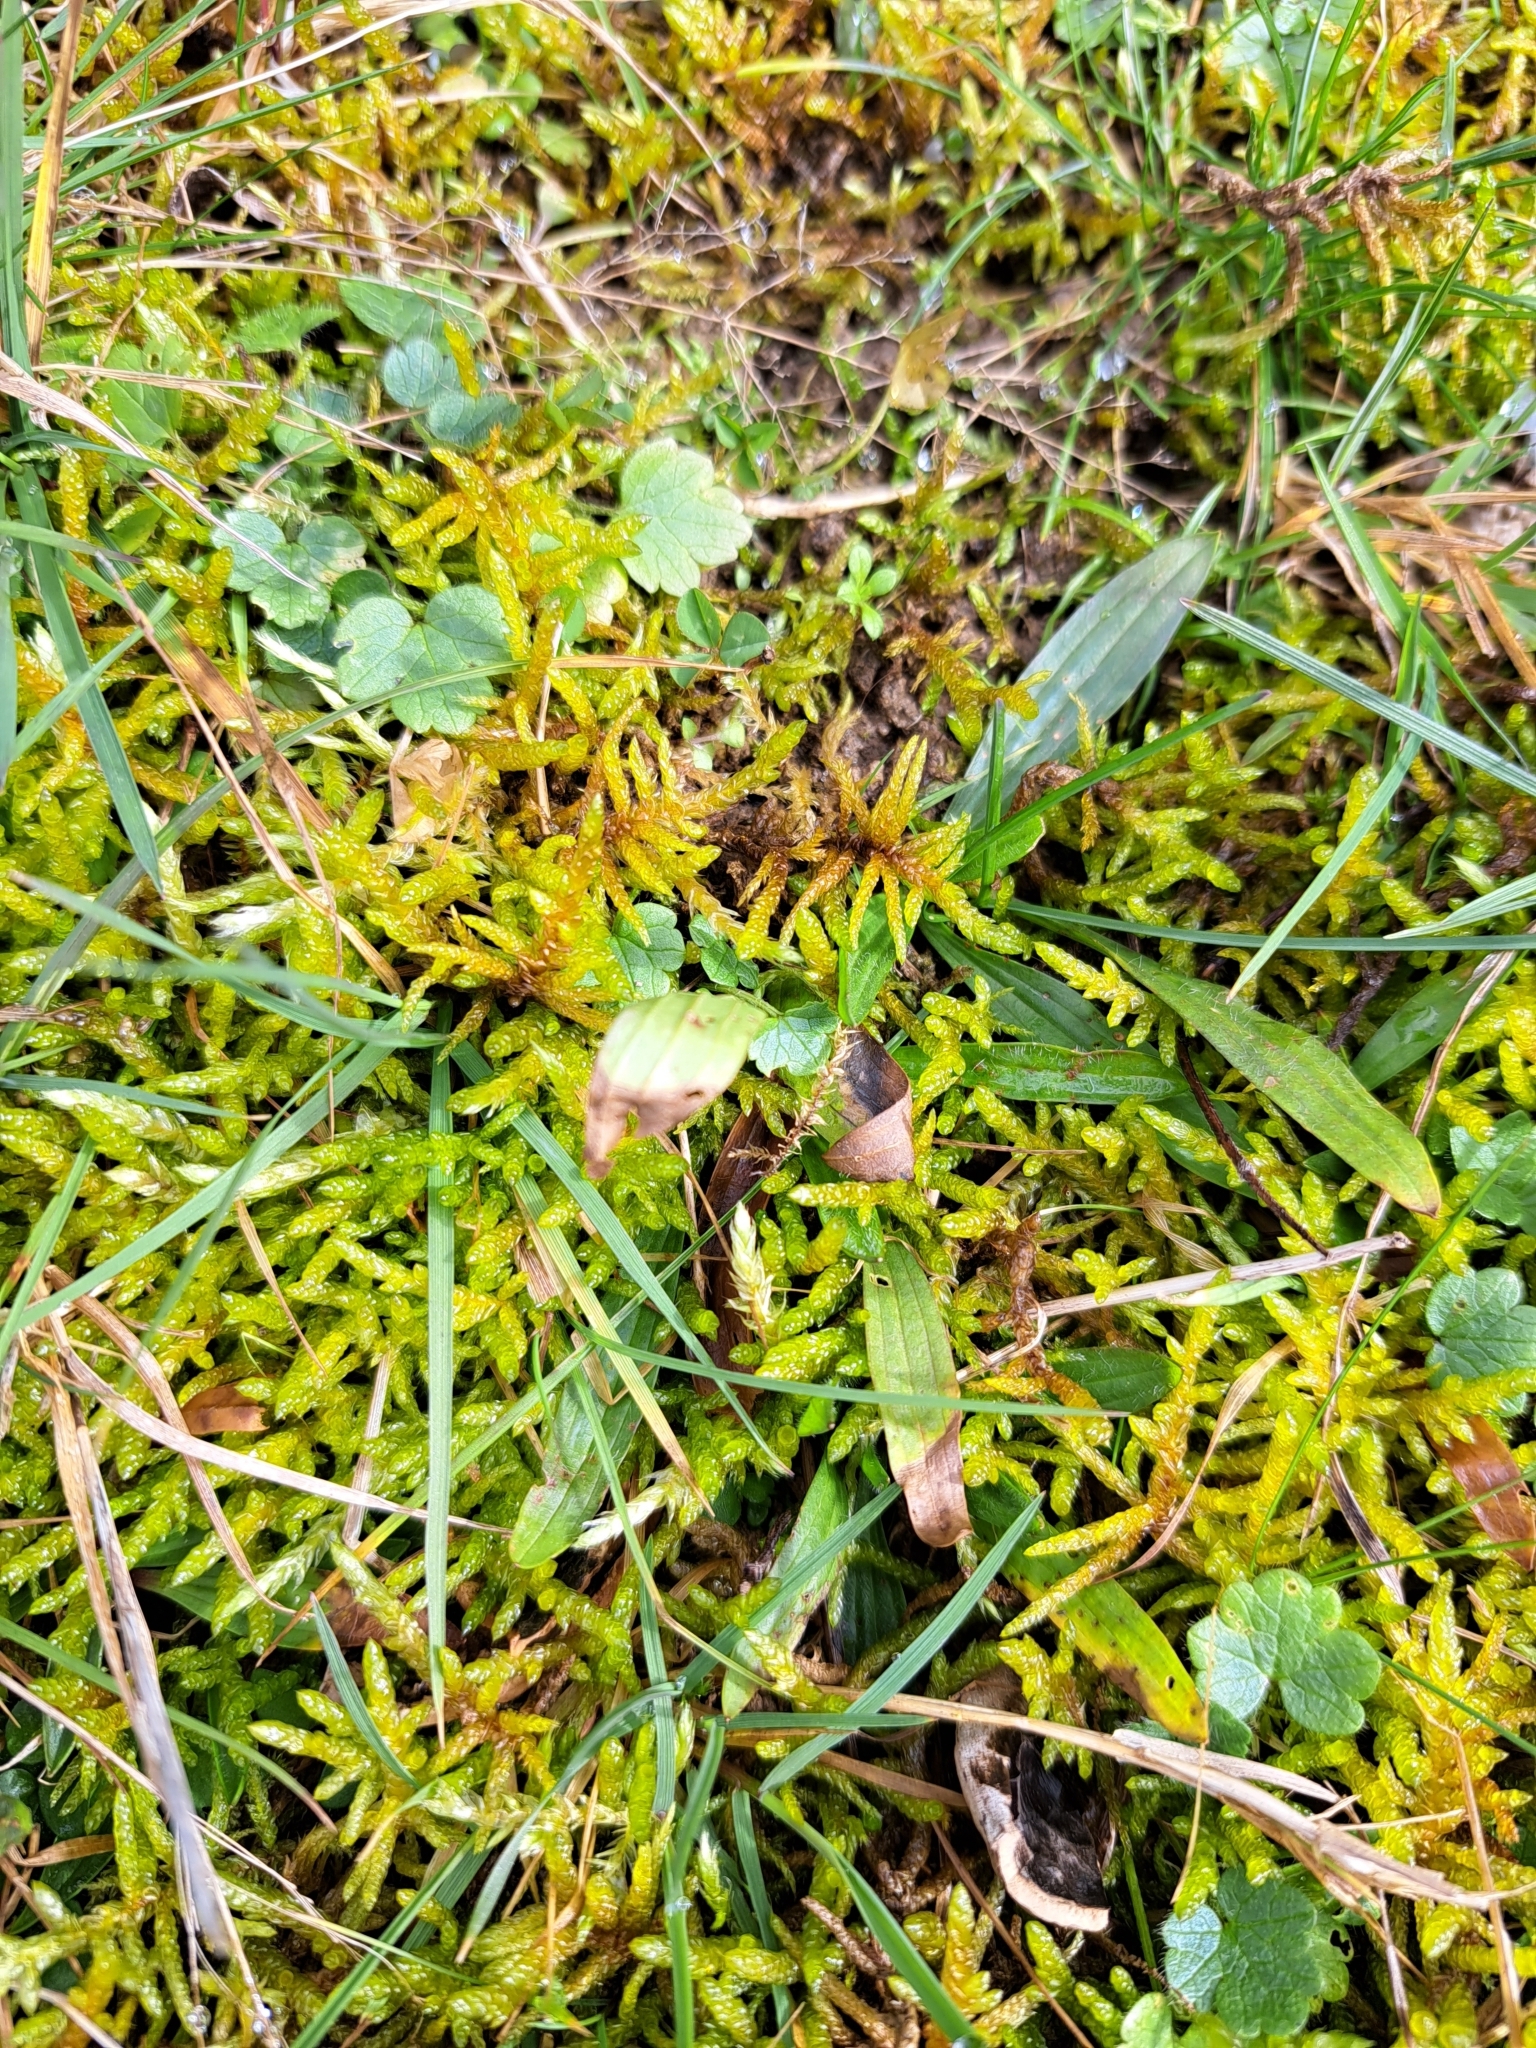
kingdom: Plantae
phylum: Bryophyta
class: Bryopsida
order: Hypnales
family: Brachytheciaceae
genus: Pseudoscleropodium
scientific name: Pseudoscleropodium purum
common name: Neat feather-moss
